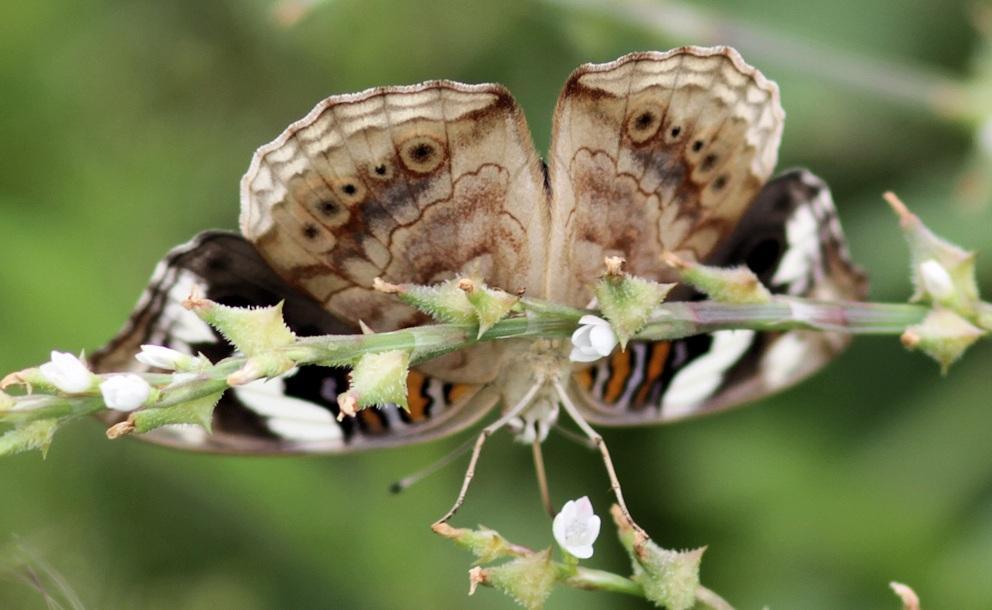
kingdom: Animalia
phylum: Arthropoda
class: Insecta
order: Lepidoptera
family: Nymphalidae
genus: Junonia
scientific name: Junonia oenone
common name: Dark blue pansy
